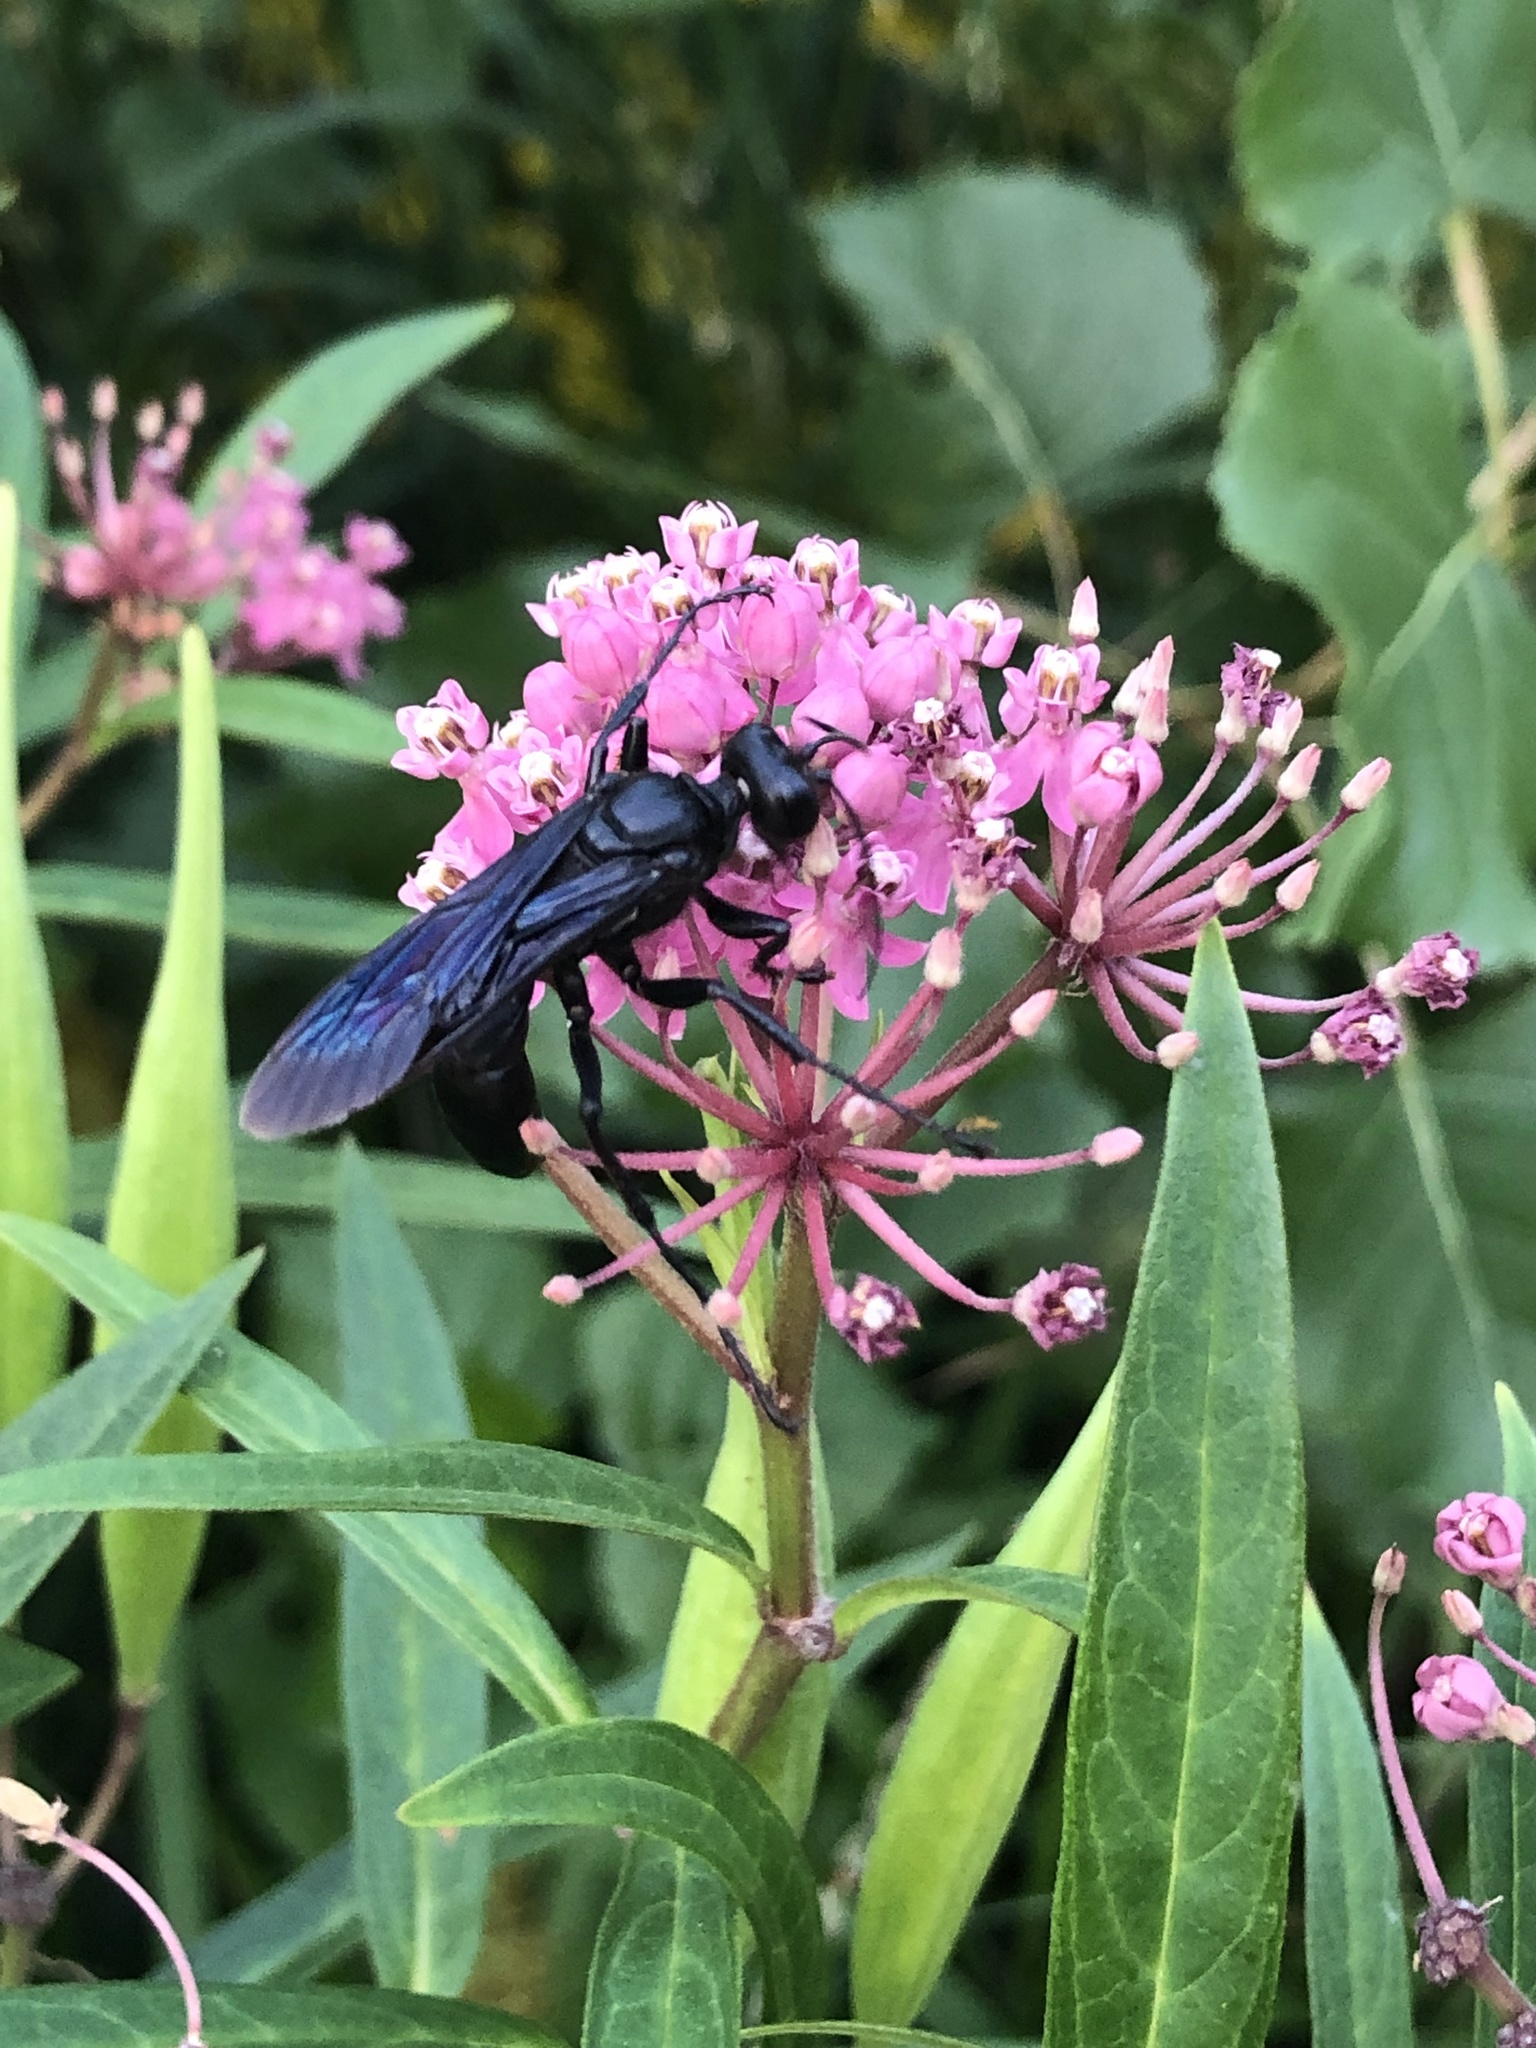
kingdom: Animalia
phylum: Arthropoda
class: Insecta
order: Hymenoptera
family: Sphecidae
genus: Sphex
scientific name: Sphex pensylvanicus
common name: Great black digger wasp
